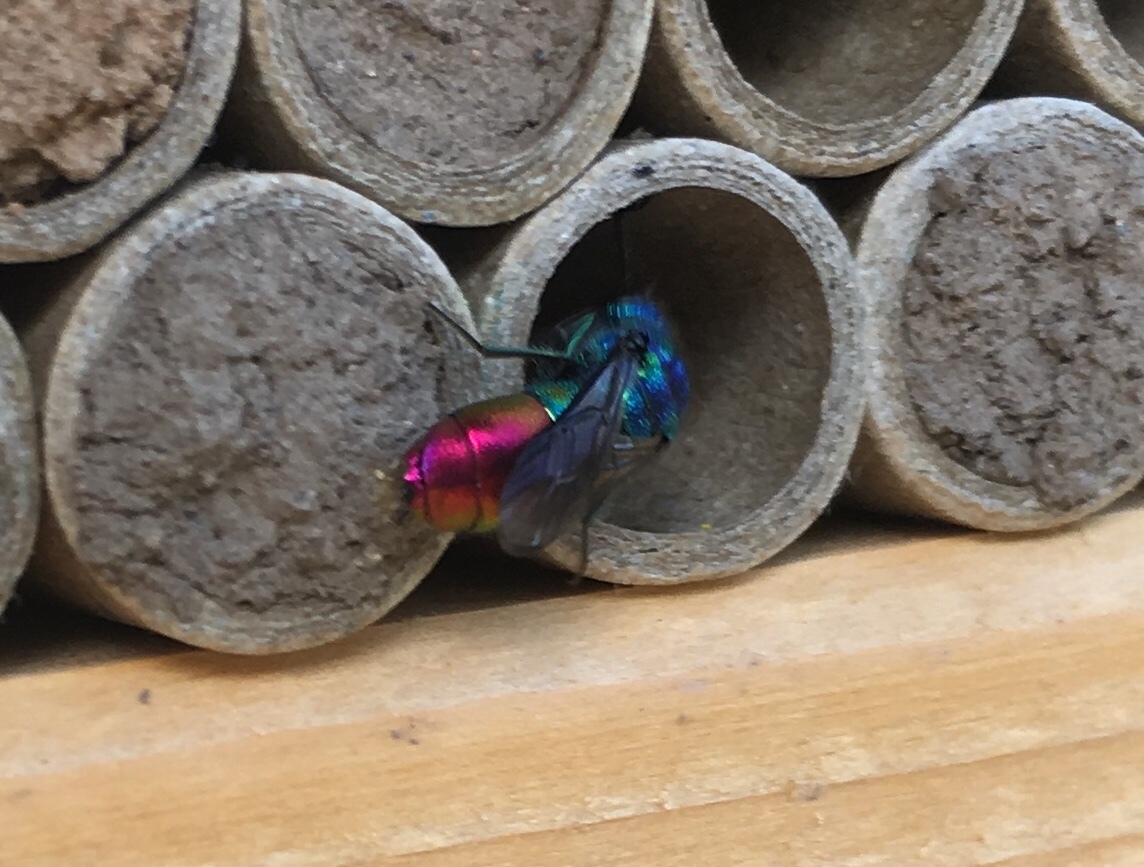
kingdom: Animalia
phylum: Arthropoda
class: Insecta
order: Hymenoptera
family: Chrysididae
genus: Chrysis
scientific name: Chrysis fulgida
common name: Shimmering ruby-tail
